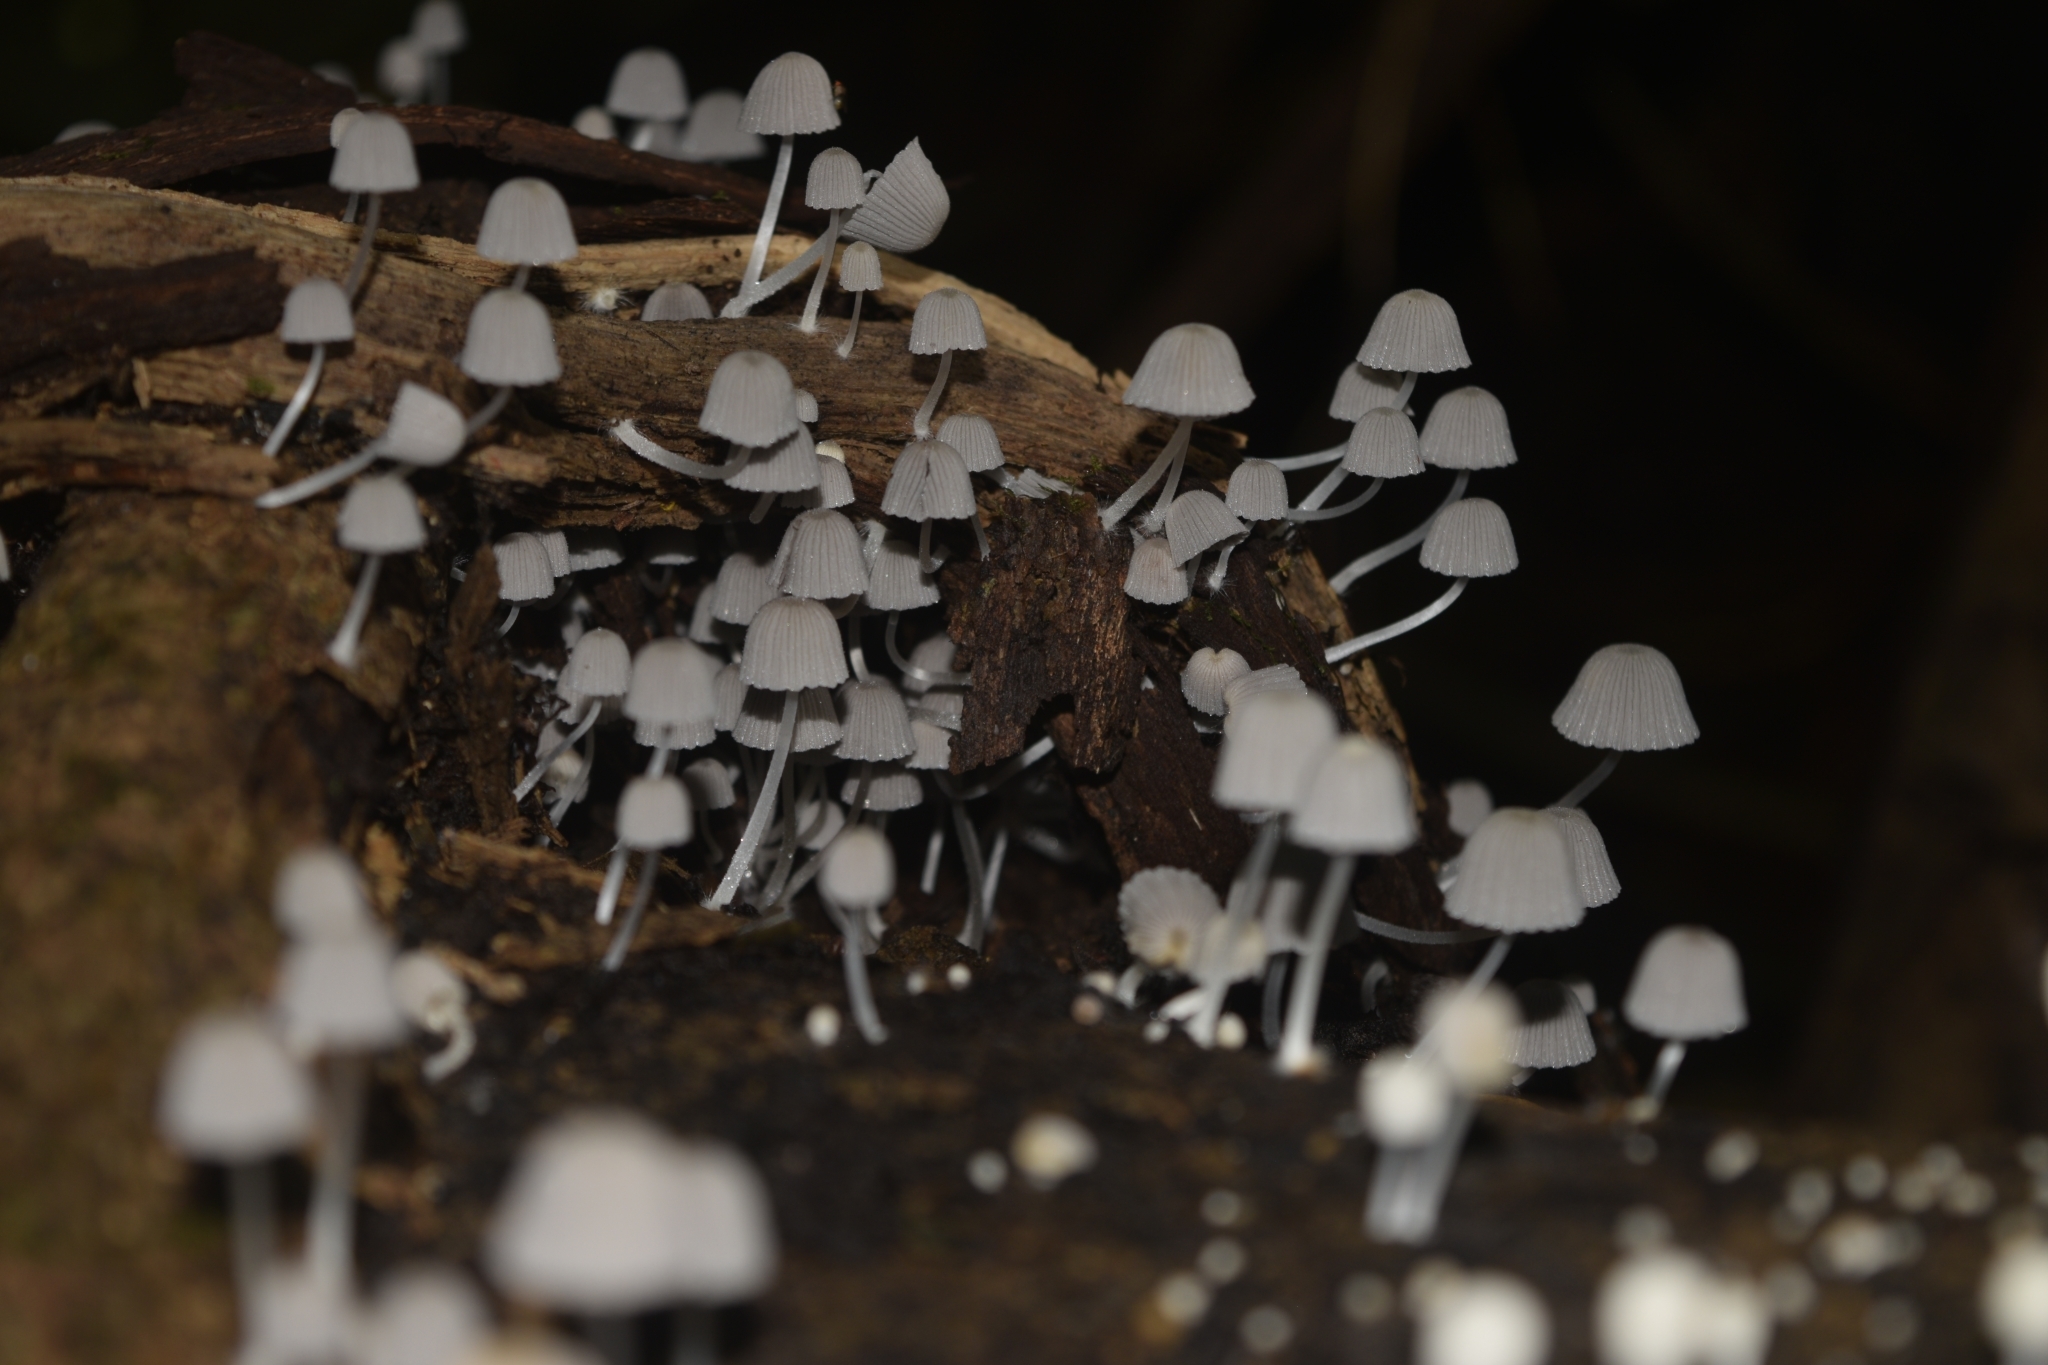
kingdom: Fungi
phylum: Basidiomycota
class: Agaricomycetes
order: Agaricales
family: Psathyrellaceae
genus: Coprinellus
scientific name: Coprinellus disseminatus
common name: Fairies' bonnets
